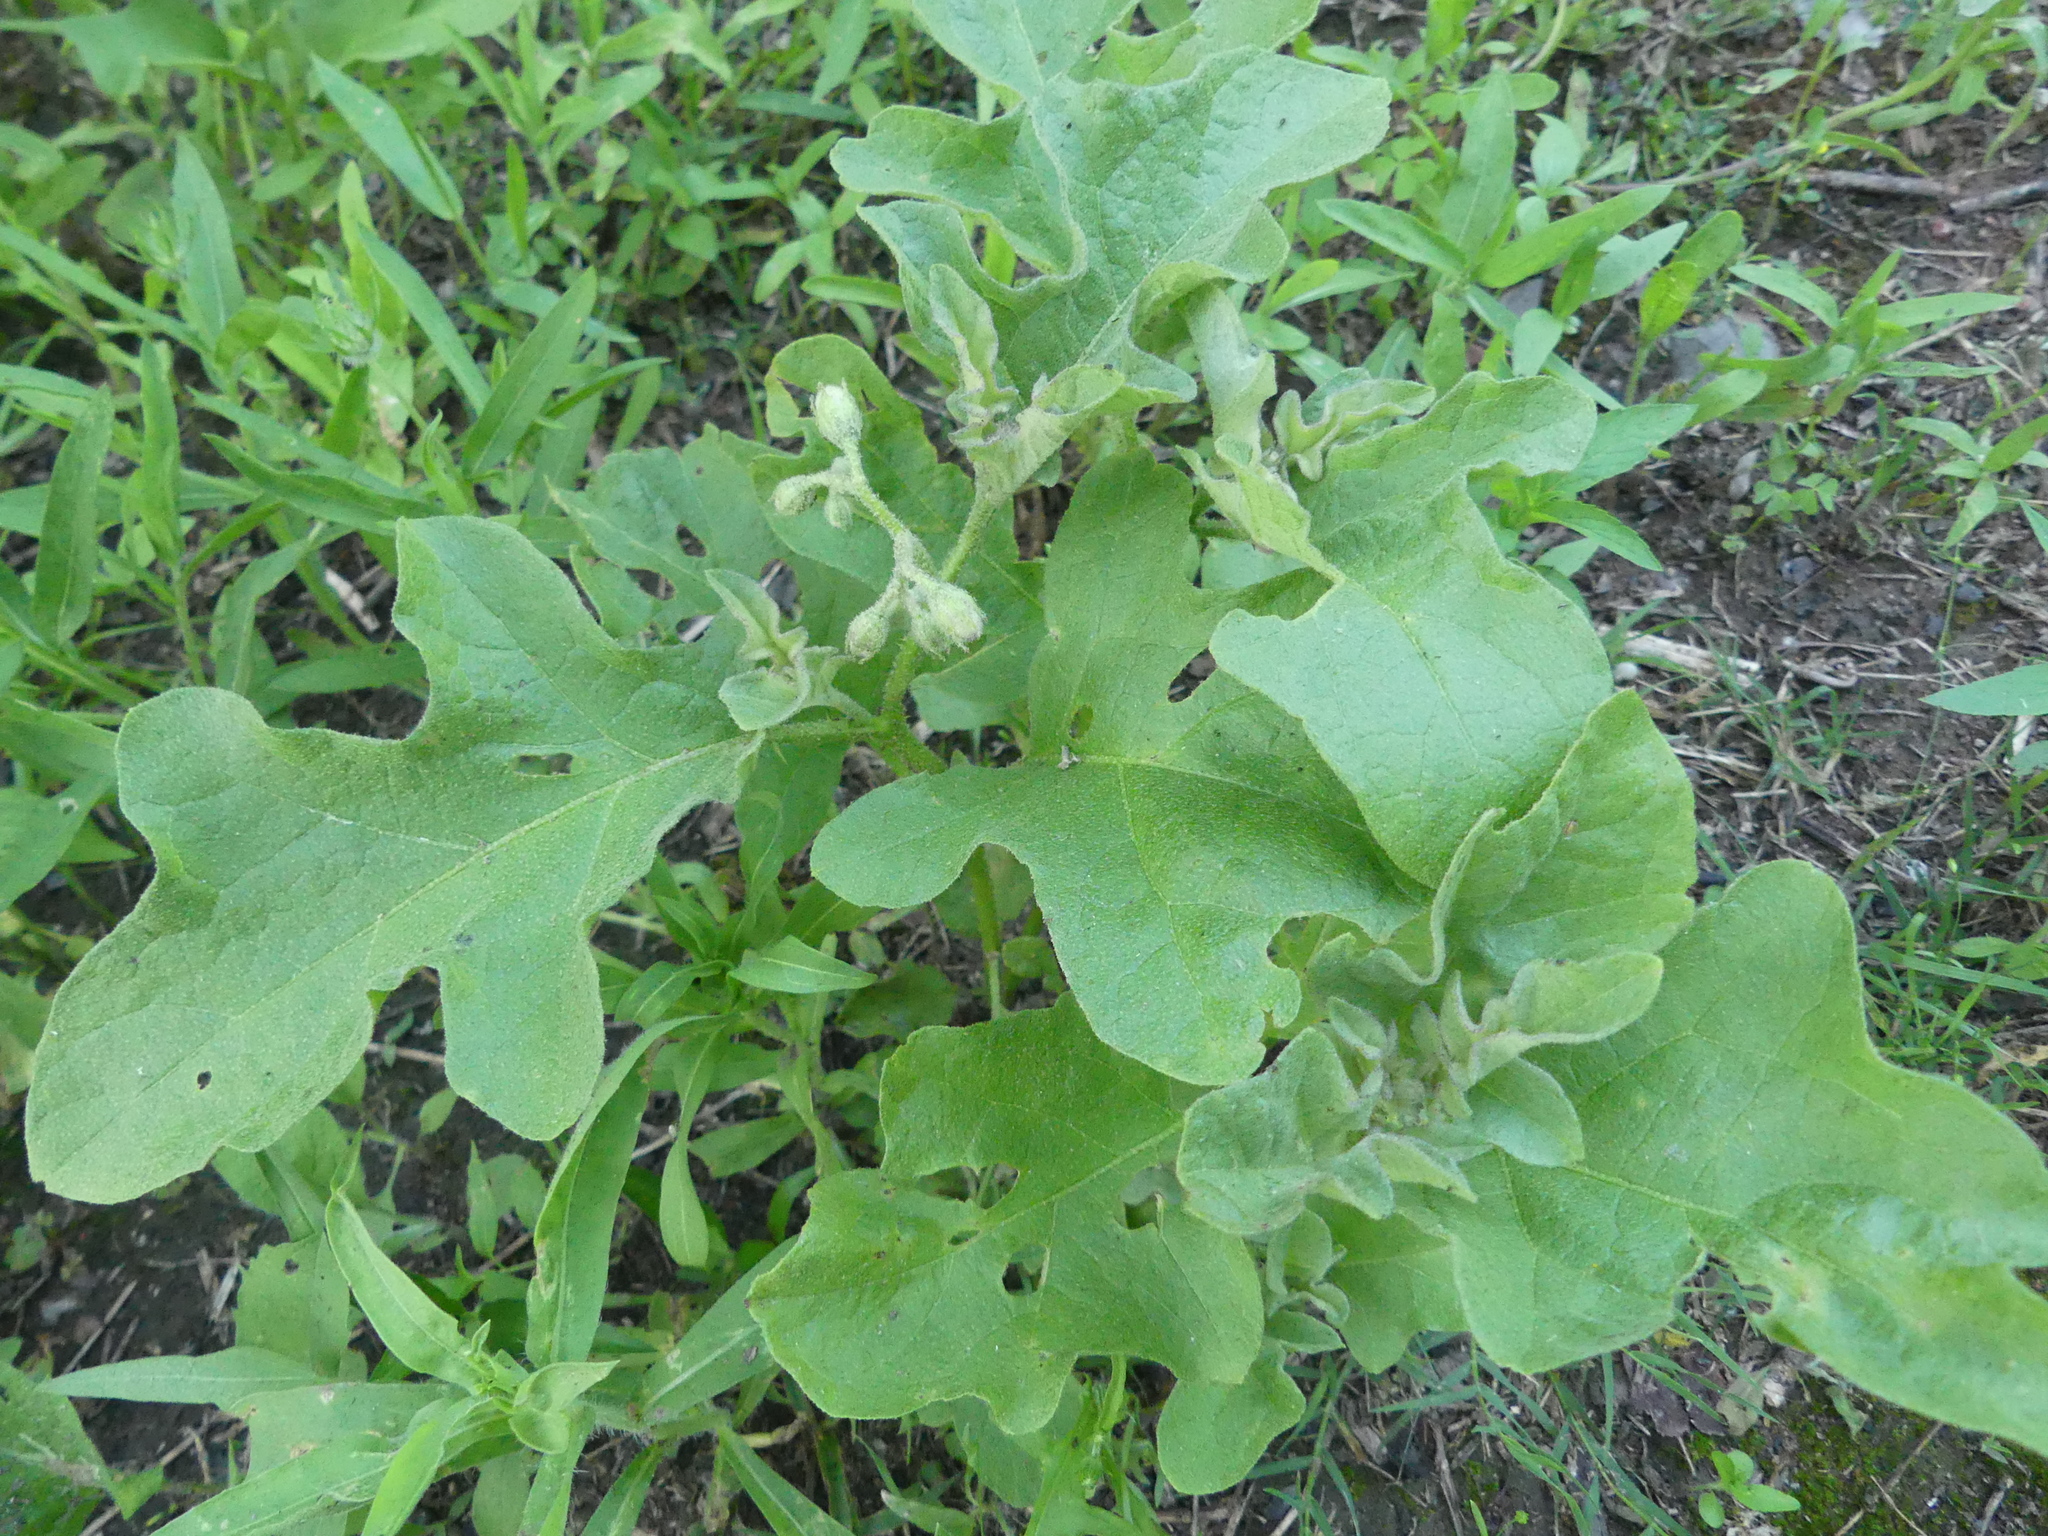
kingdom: Plantae
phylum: Tracheophyta
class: Magnoliopsida
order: Solanales
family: Solanaceae
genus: Solanum
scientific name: Solanum dimidiatum
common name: Carolina horse-nettle
